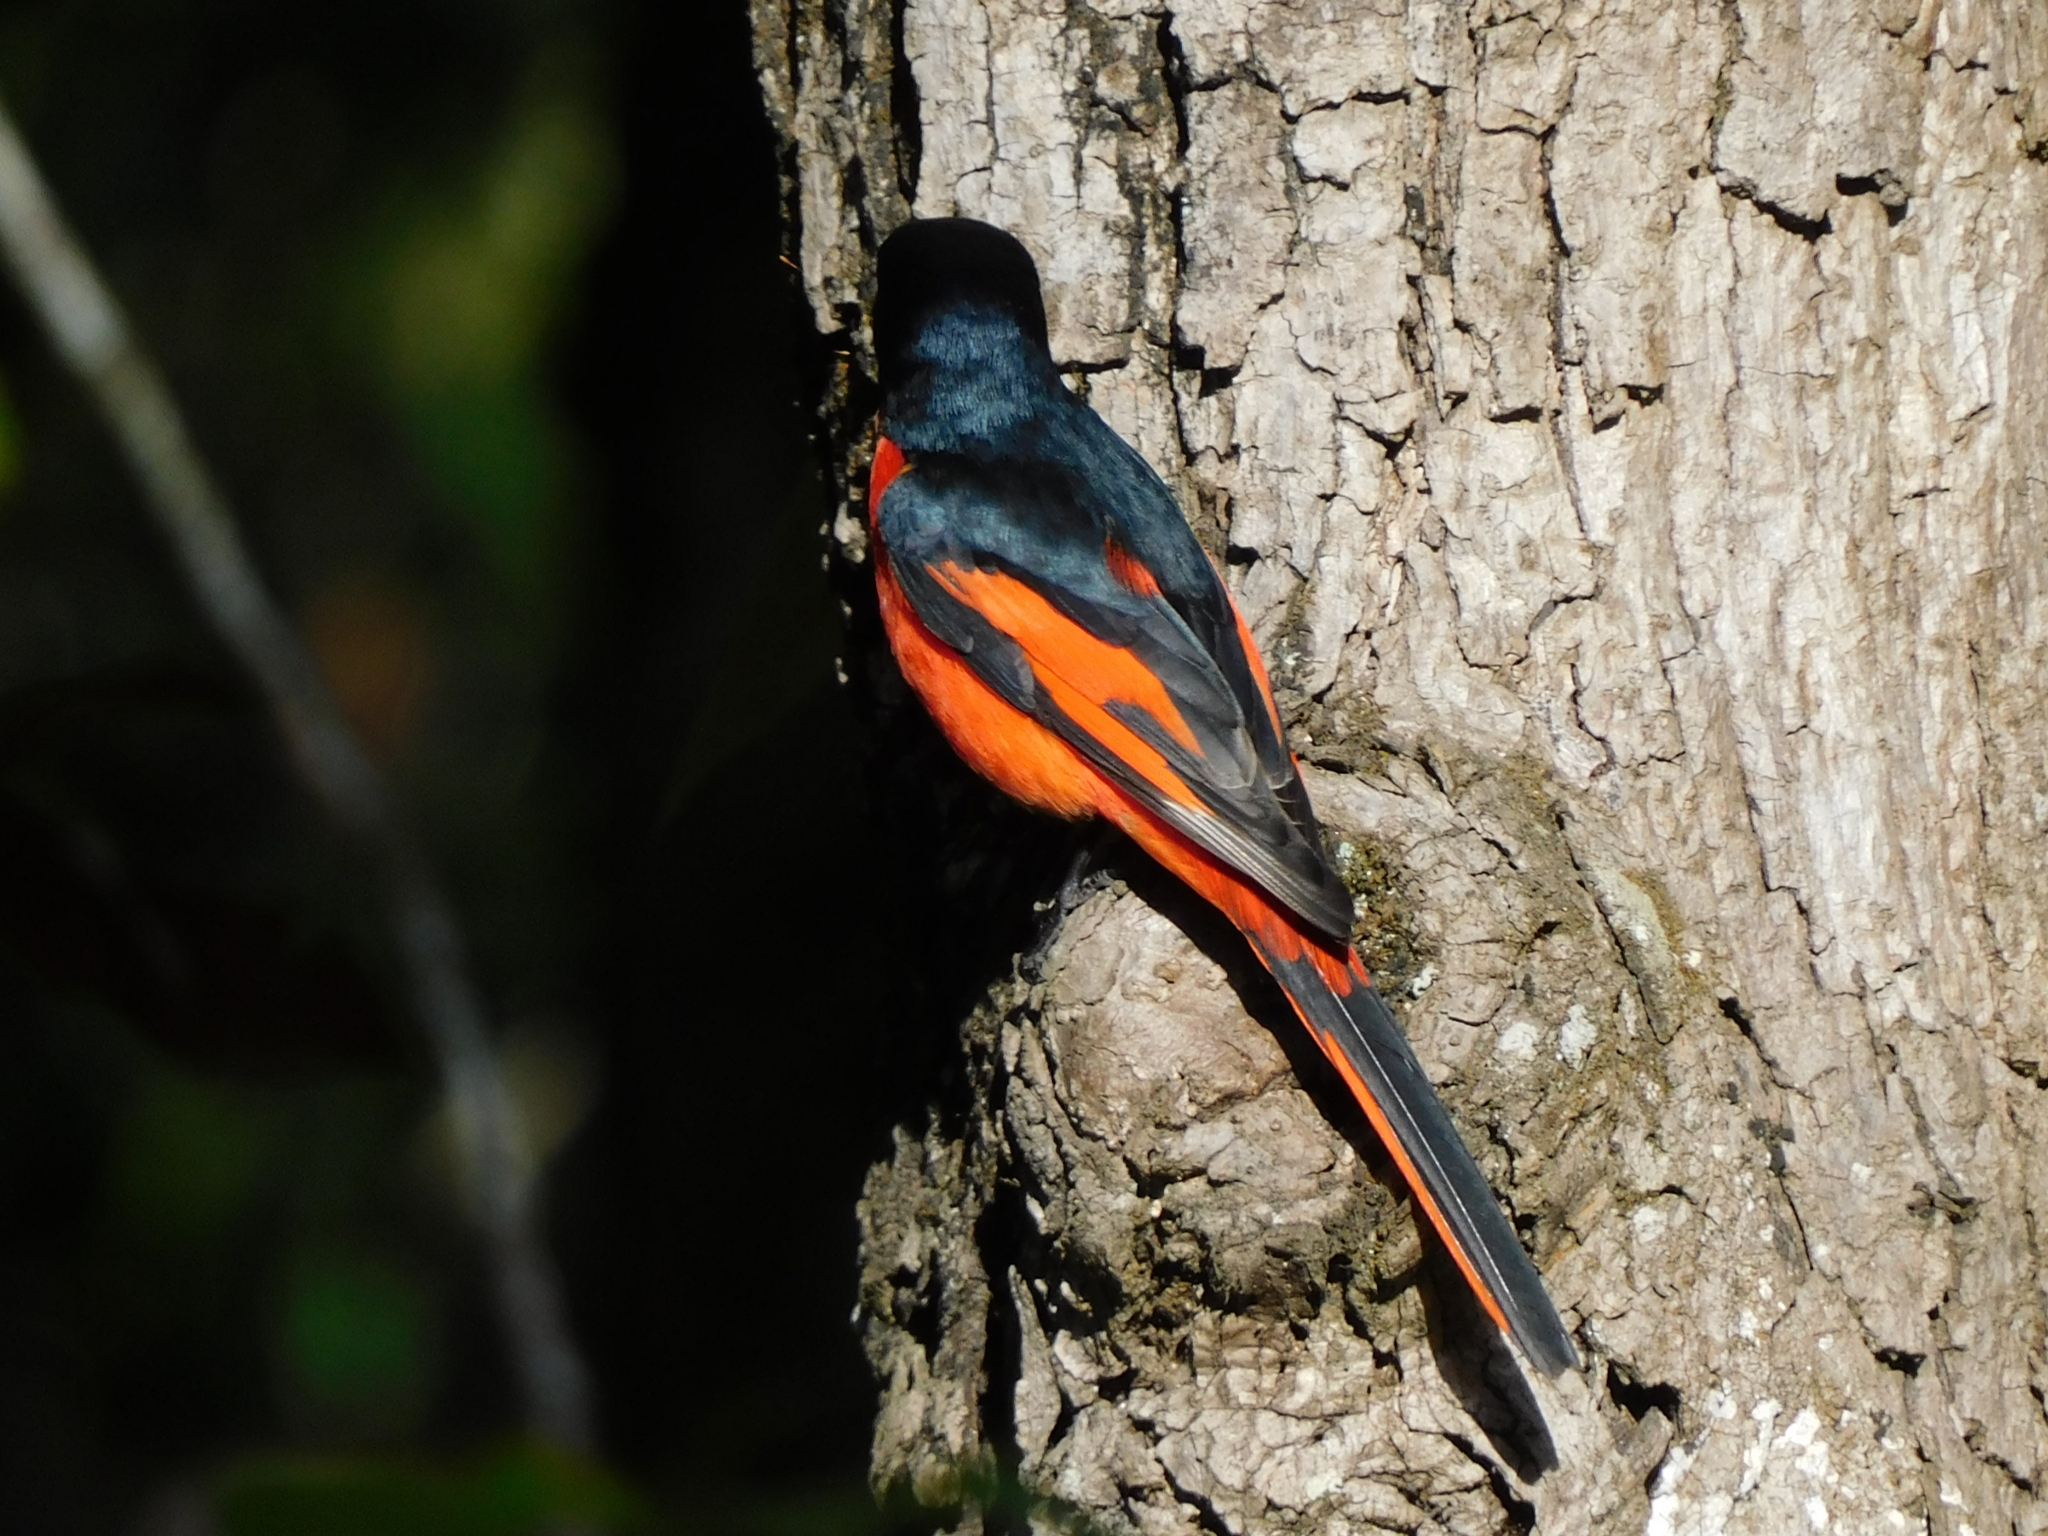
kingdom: Animalia
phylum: Chordata
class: Aves
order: Passeriformes
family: Campephagidae
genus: Pericrocotus
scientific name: Pericrocotus ethologus
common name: Long-tailed minivet
